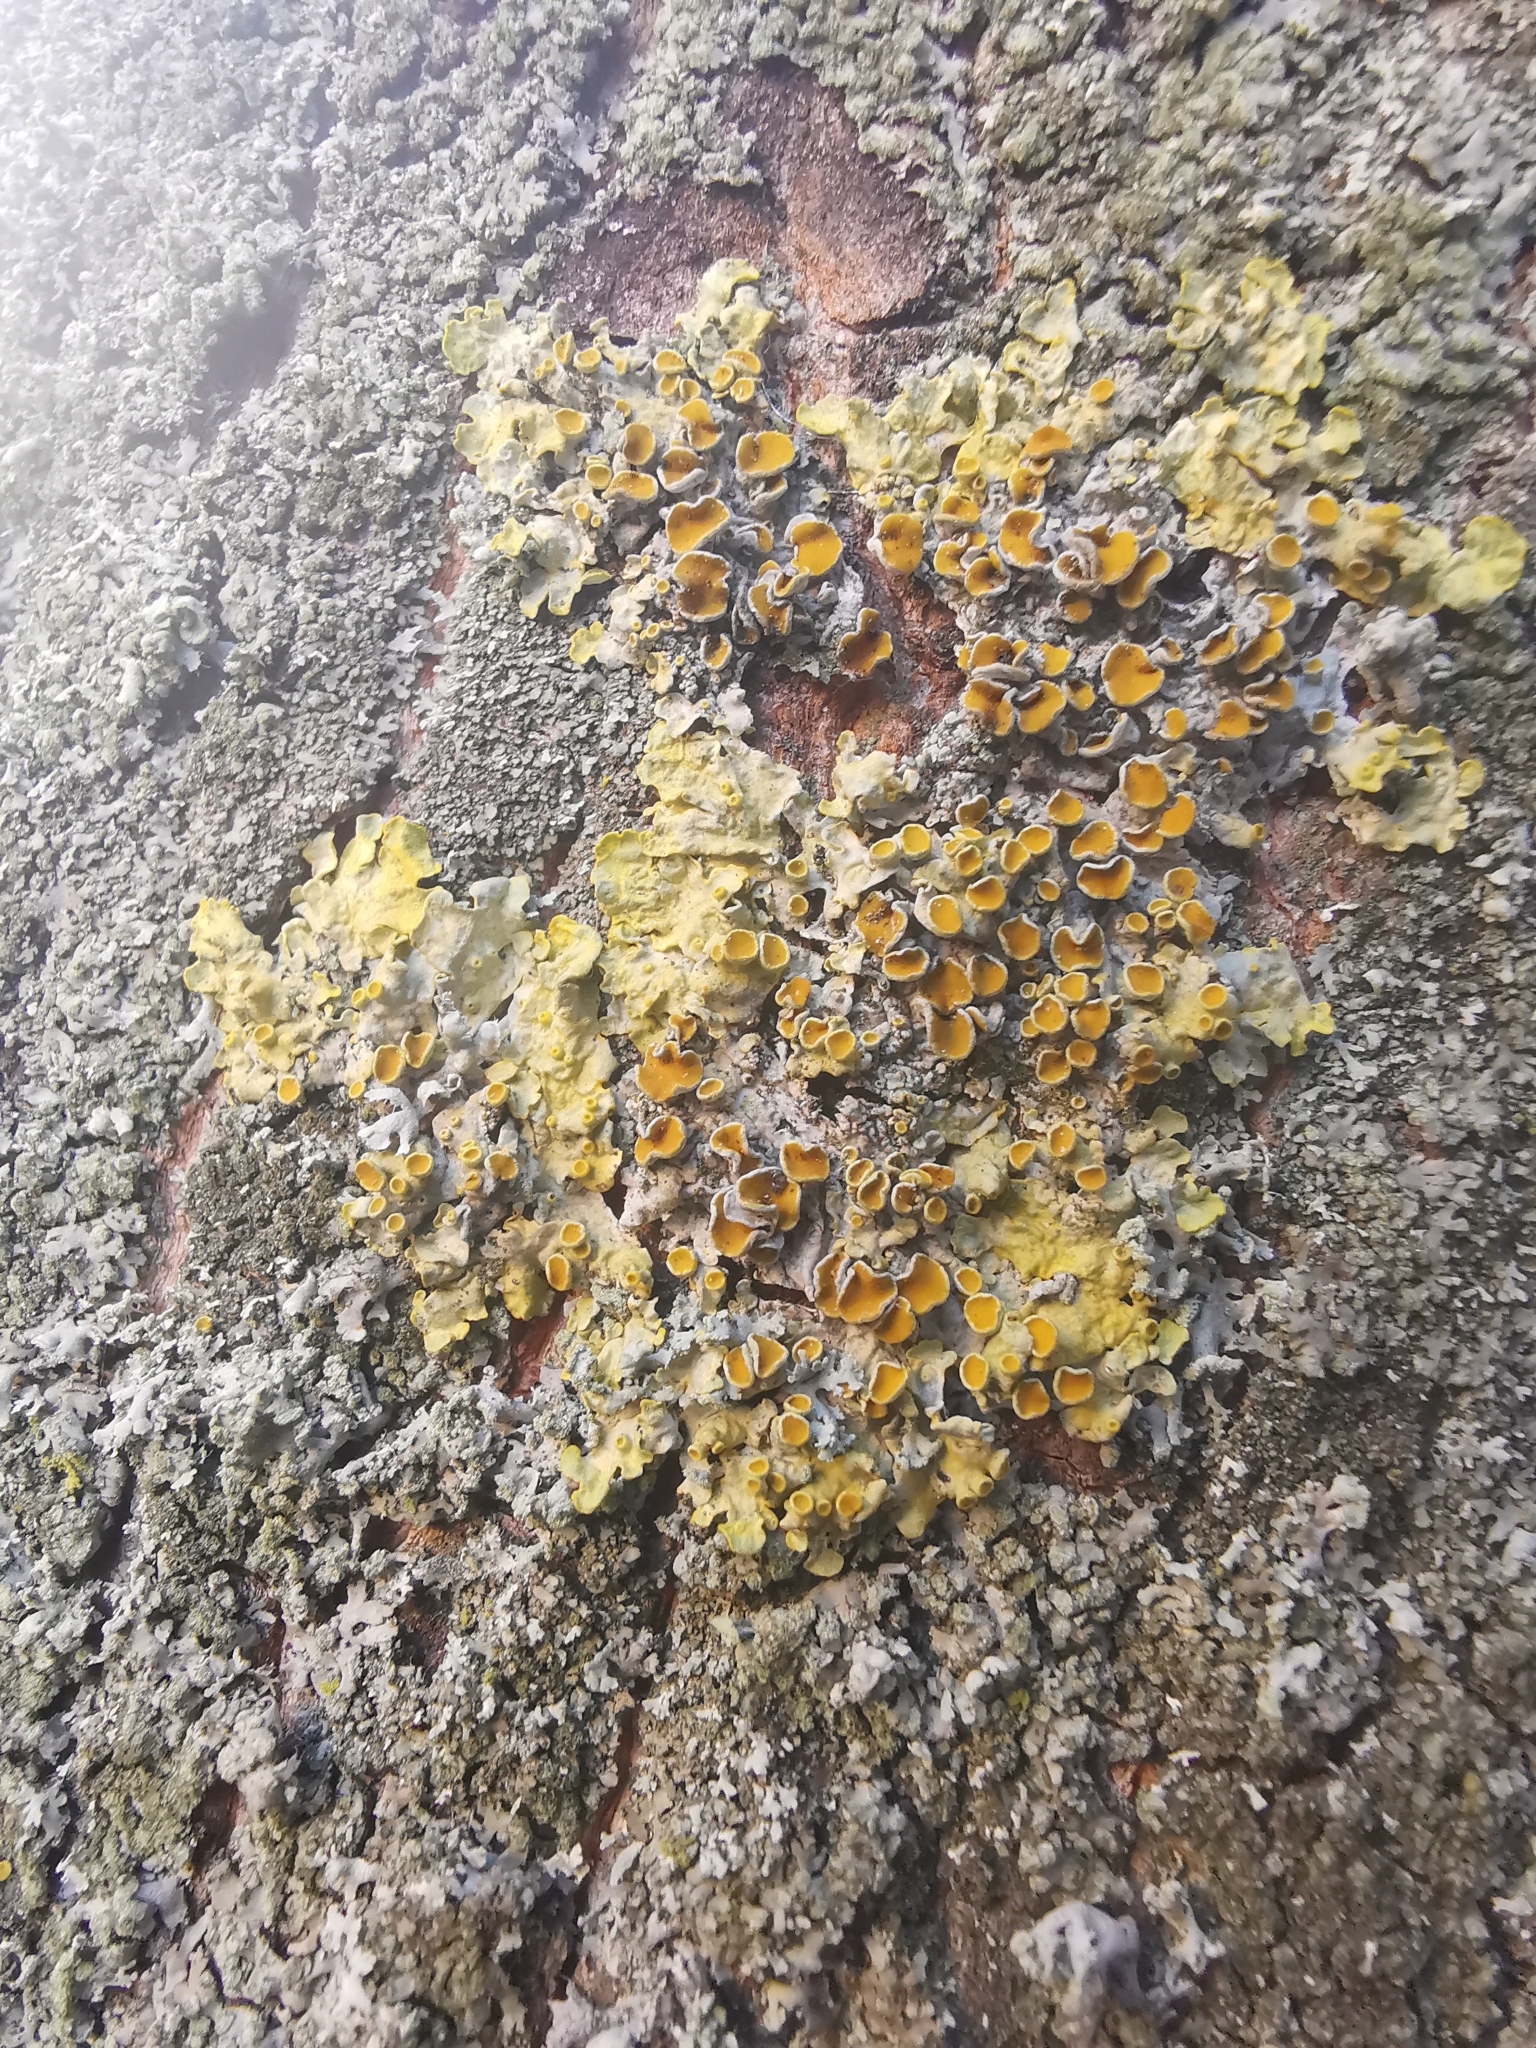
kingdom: Fungi
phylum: Ascomycota
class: Lecanoromycetes
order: Teloschistales
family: Teloschistaceae
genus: Xanthoria
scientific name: Xanthoria parietina
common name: Common orange lichen
